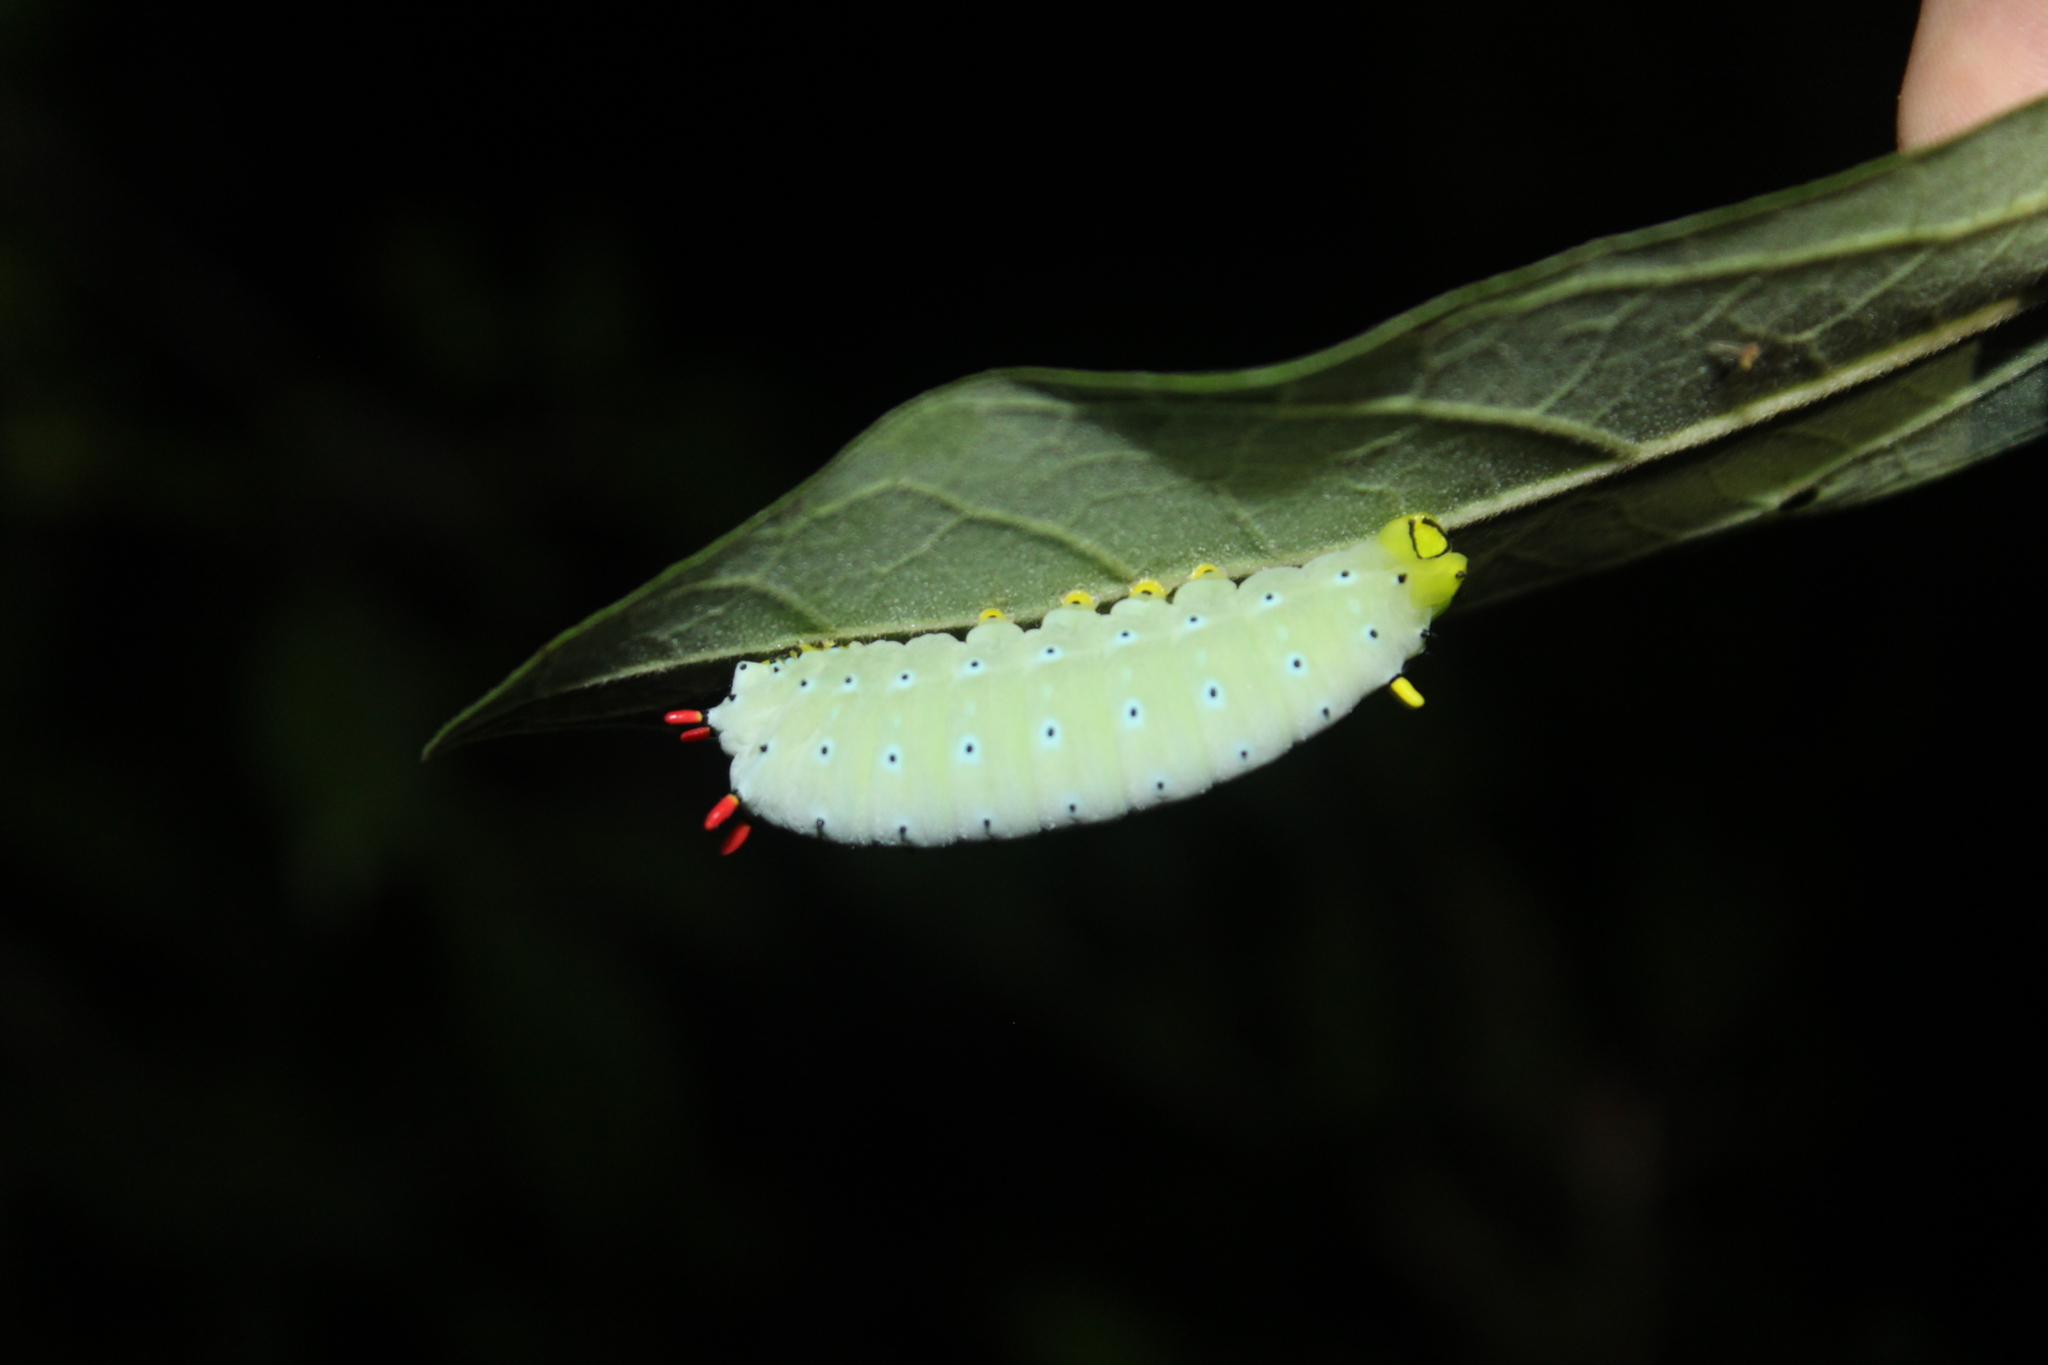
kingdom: Animalia
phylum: Arthropoda
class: Insecta
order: Lepidoptera
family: Saturniidae
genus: Callosamia
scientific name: Callosamia promethea
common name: Promethea silkmoth
